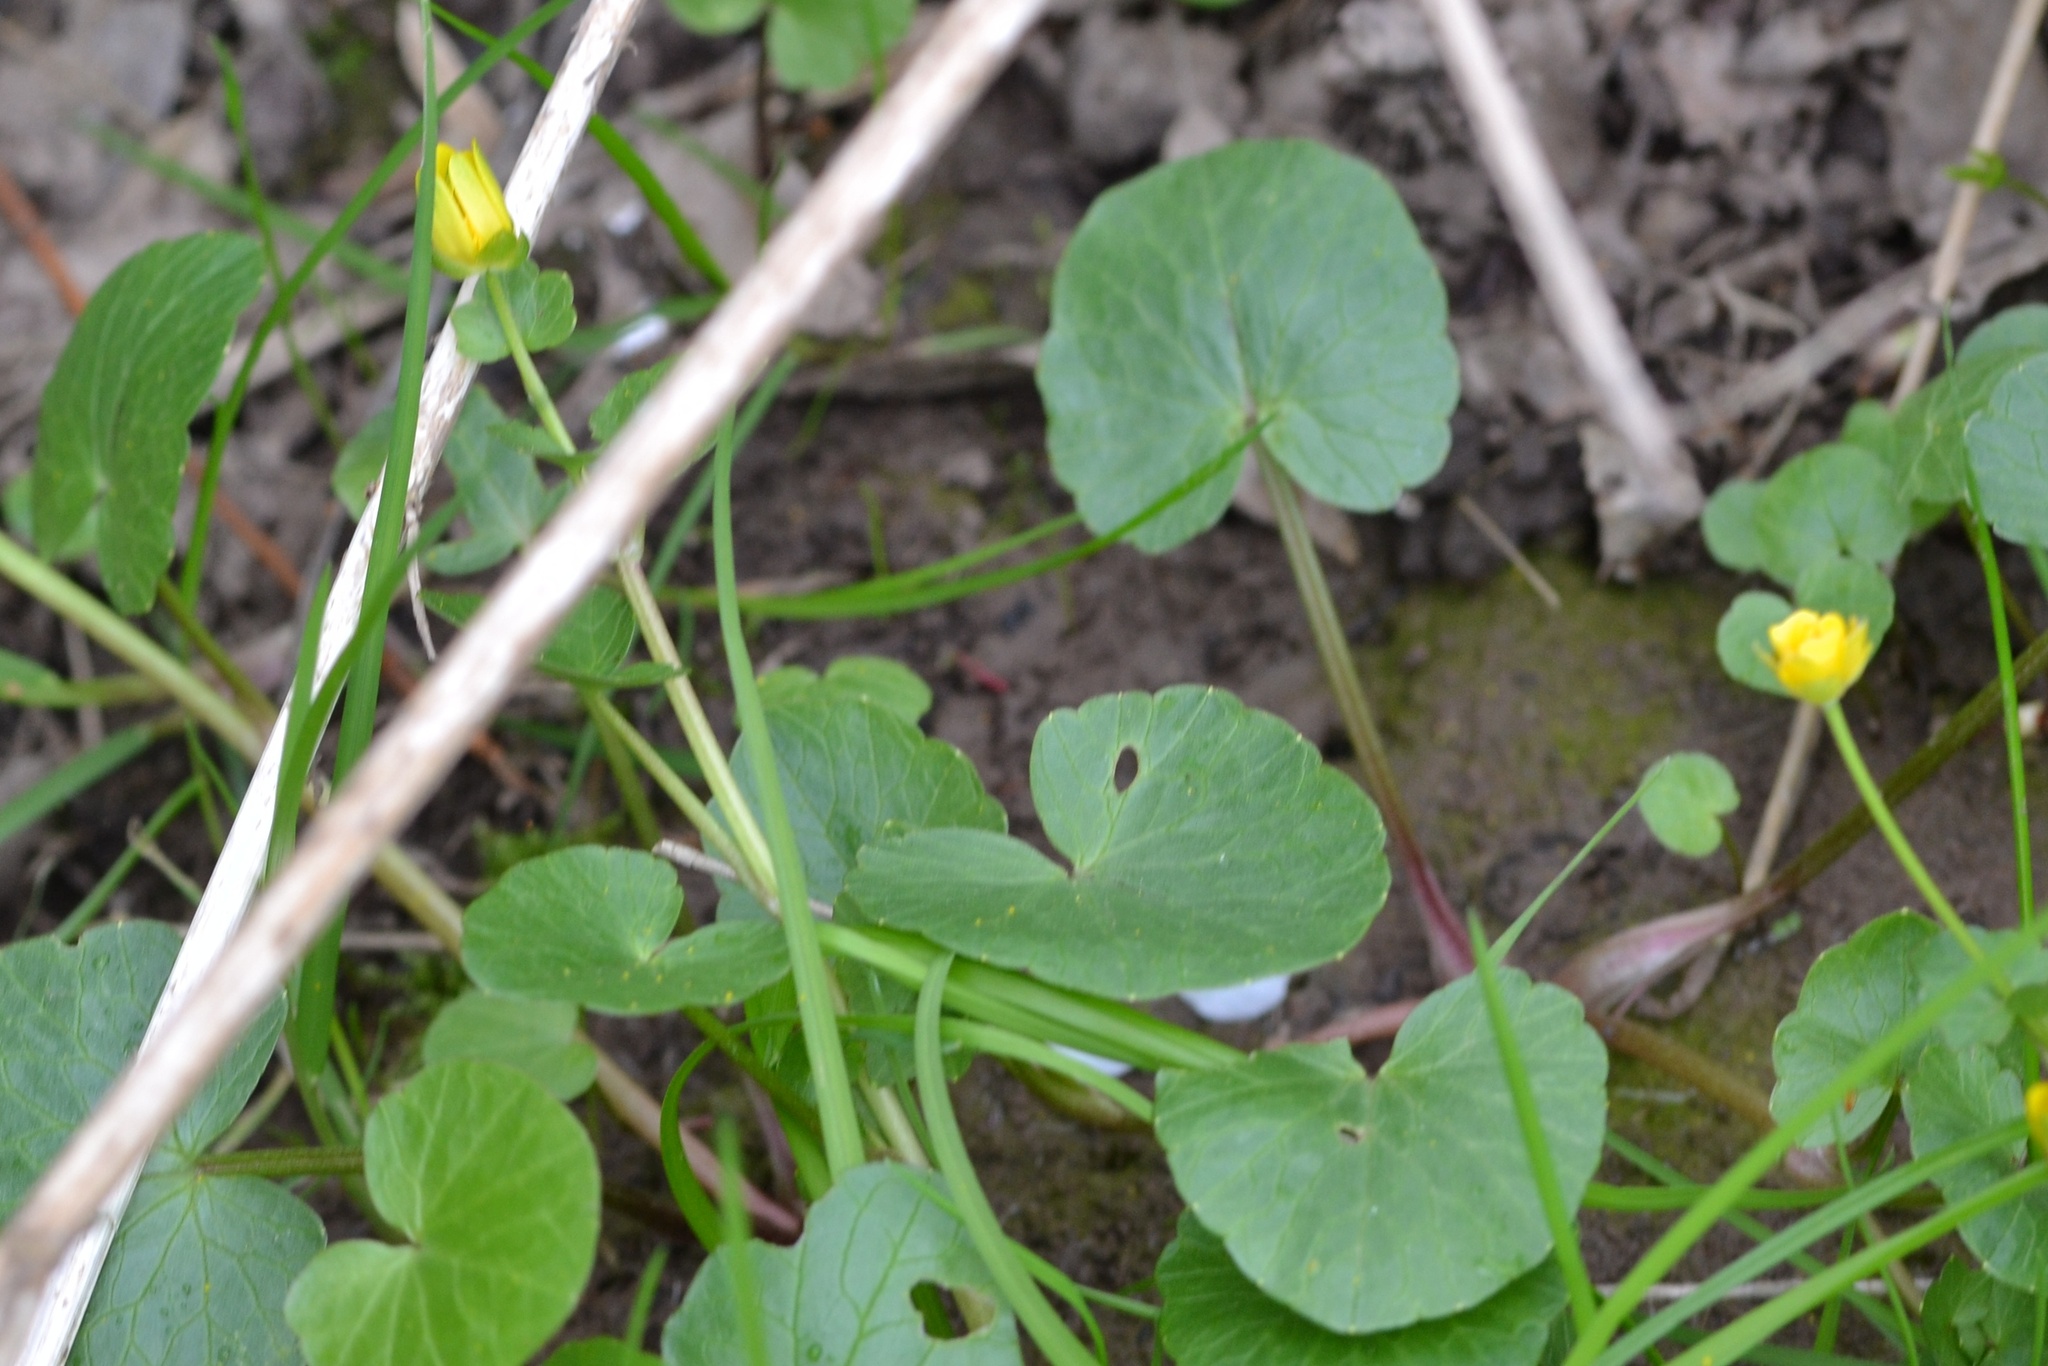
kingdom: Plantae
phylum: Tracheophyta
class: Magnoliopsida
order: Ranunculales
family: Ranunculaceae
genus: Ficaria
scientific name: Ficaria verna
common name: Lesser celandine
